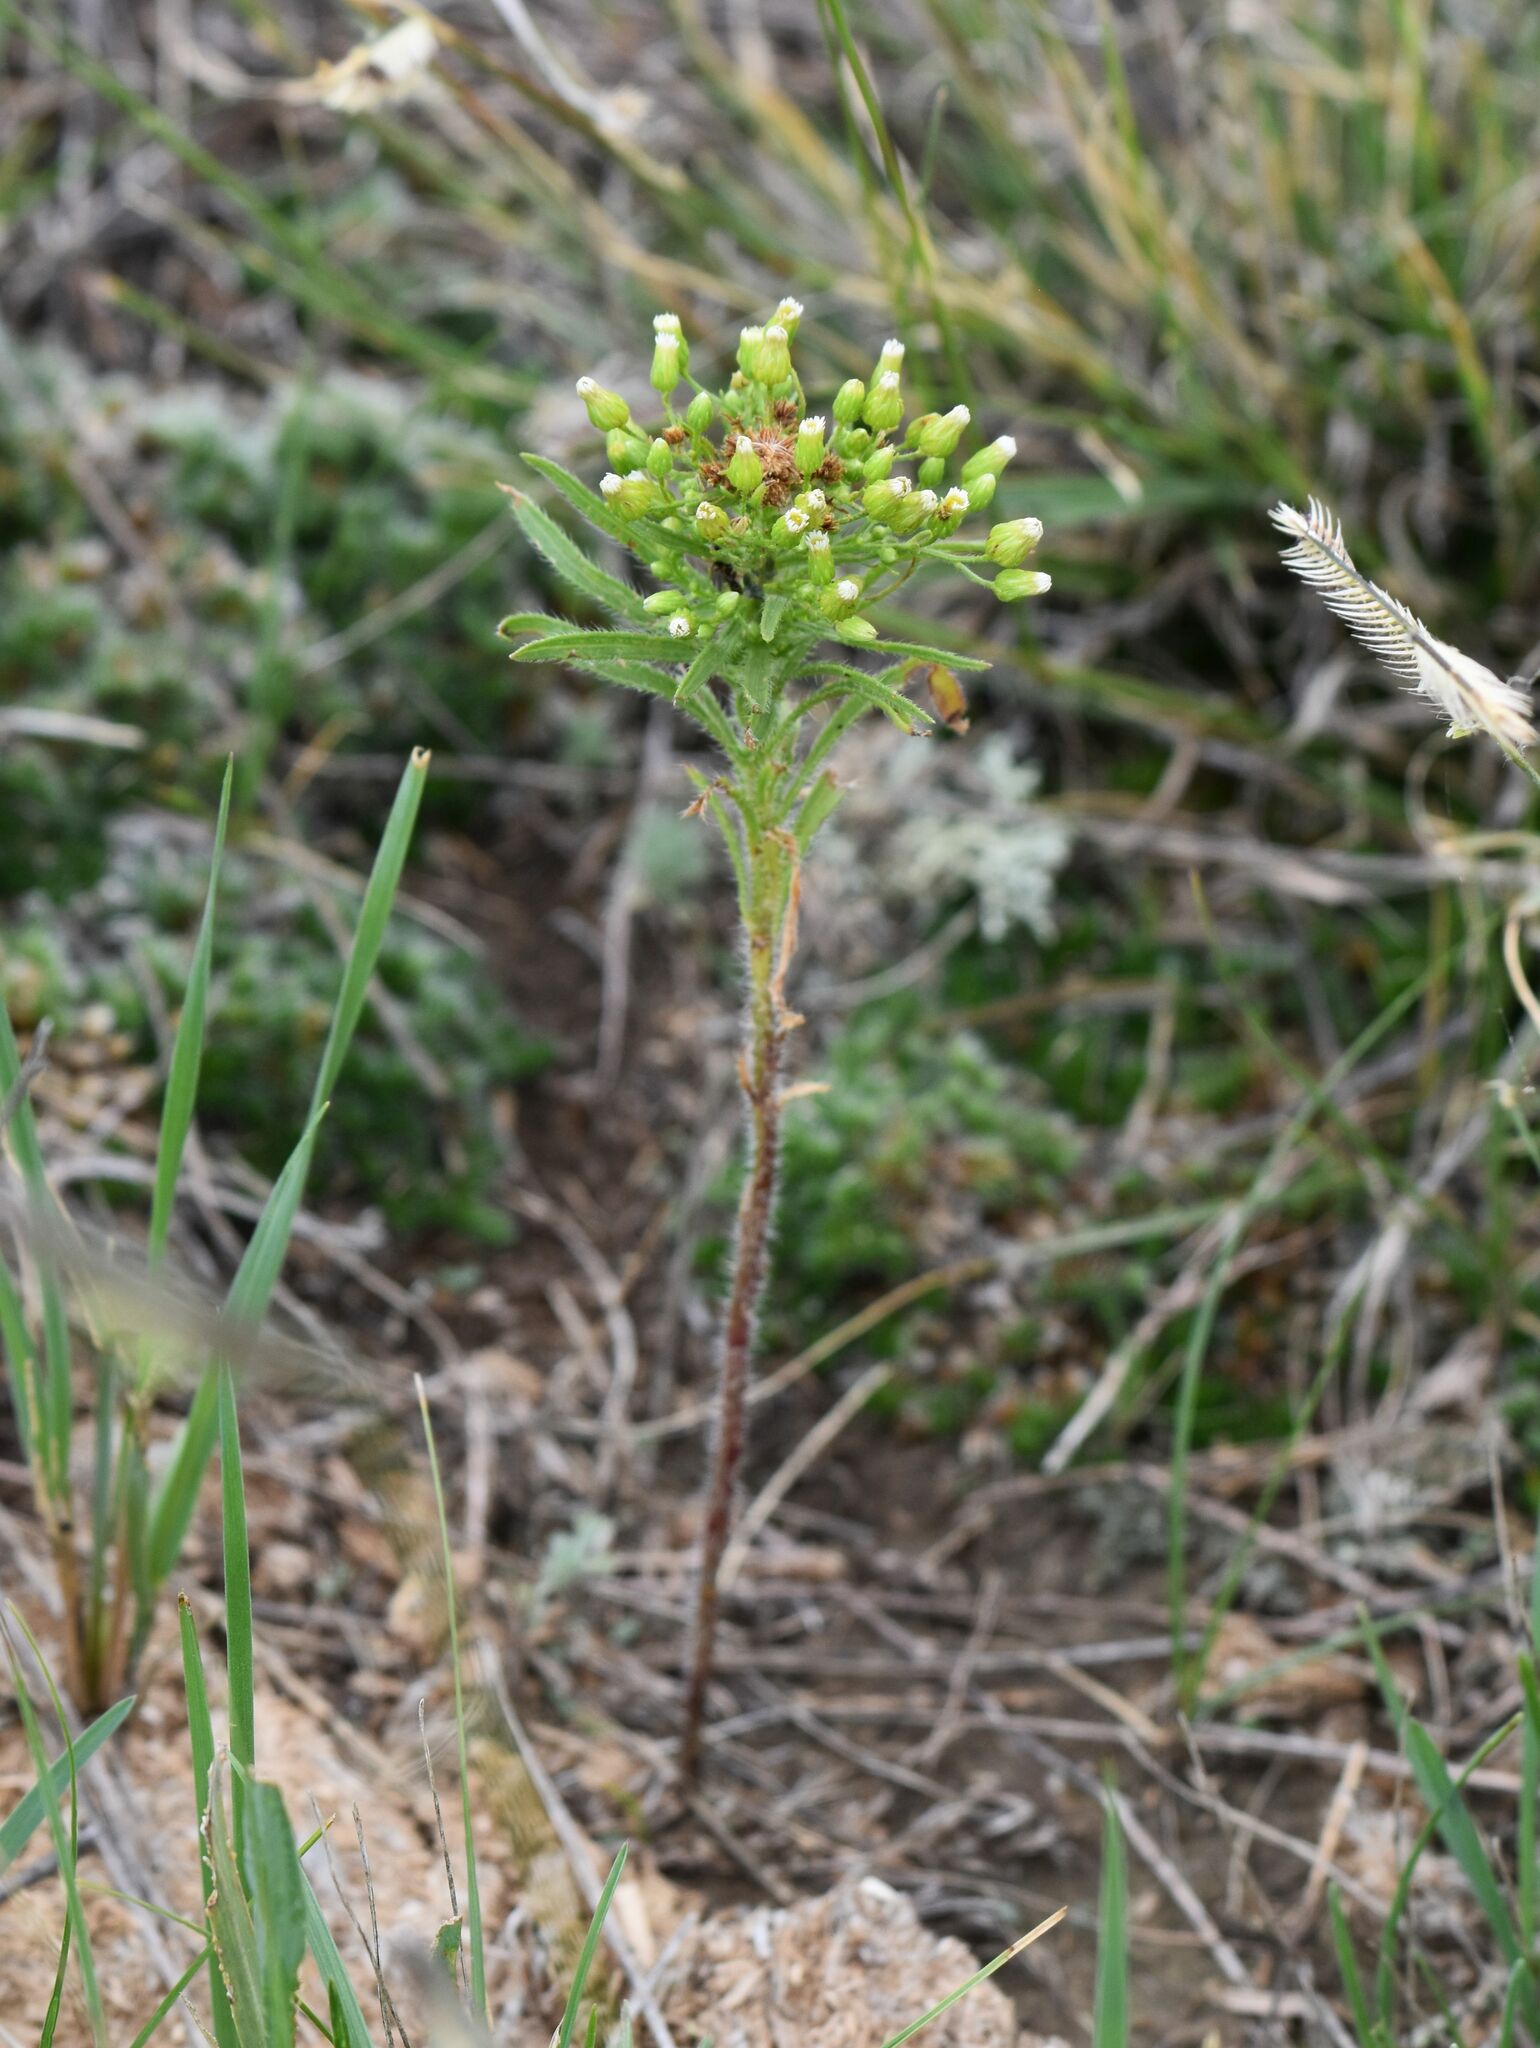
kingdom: Plantae
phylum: Tracheophyta
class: Magnoliopsida
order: Asterales
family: Asteraceae
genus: Erigeron
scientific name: Erigeron canadensis
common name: Canadian fleabane
